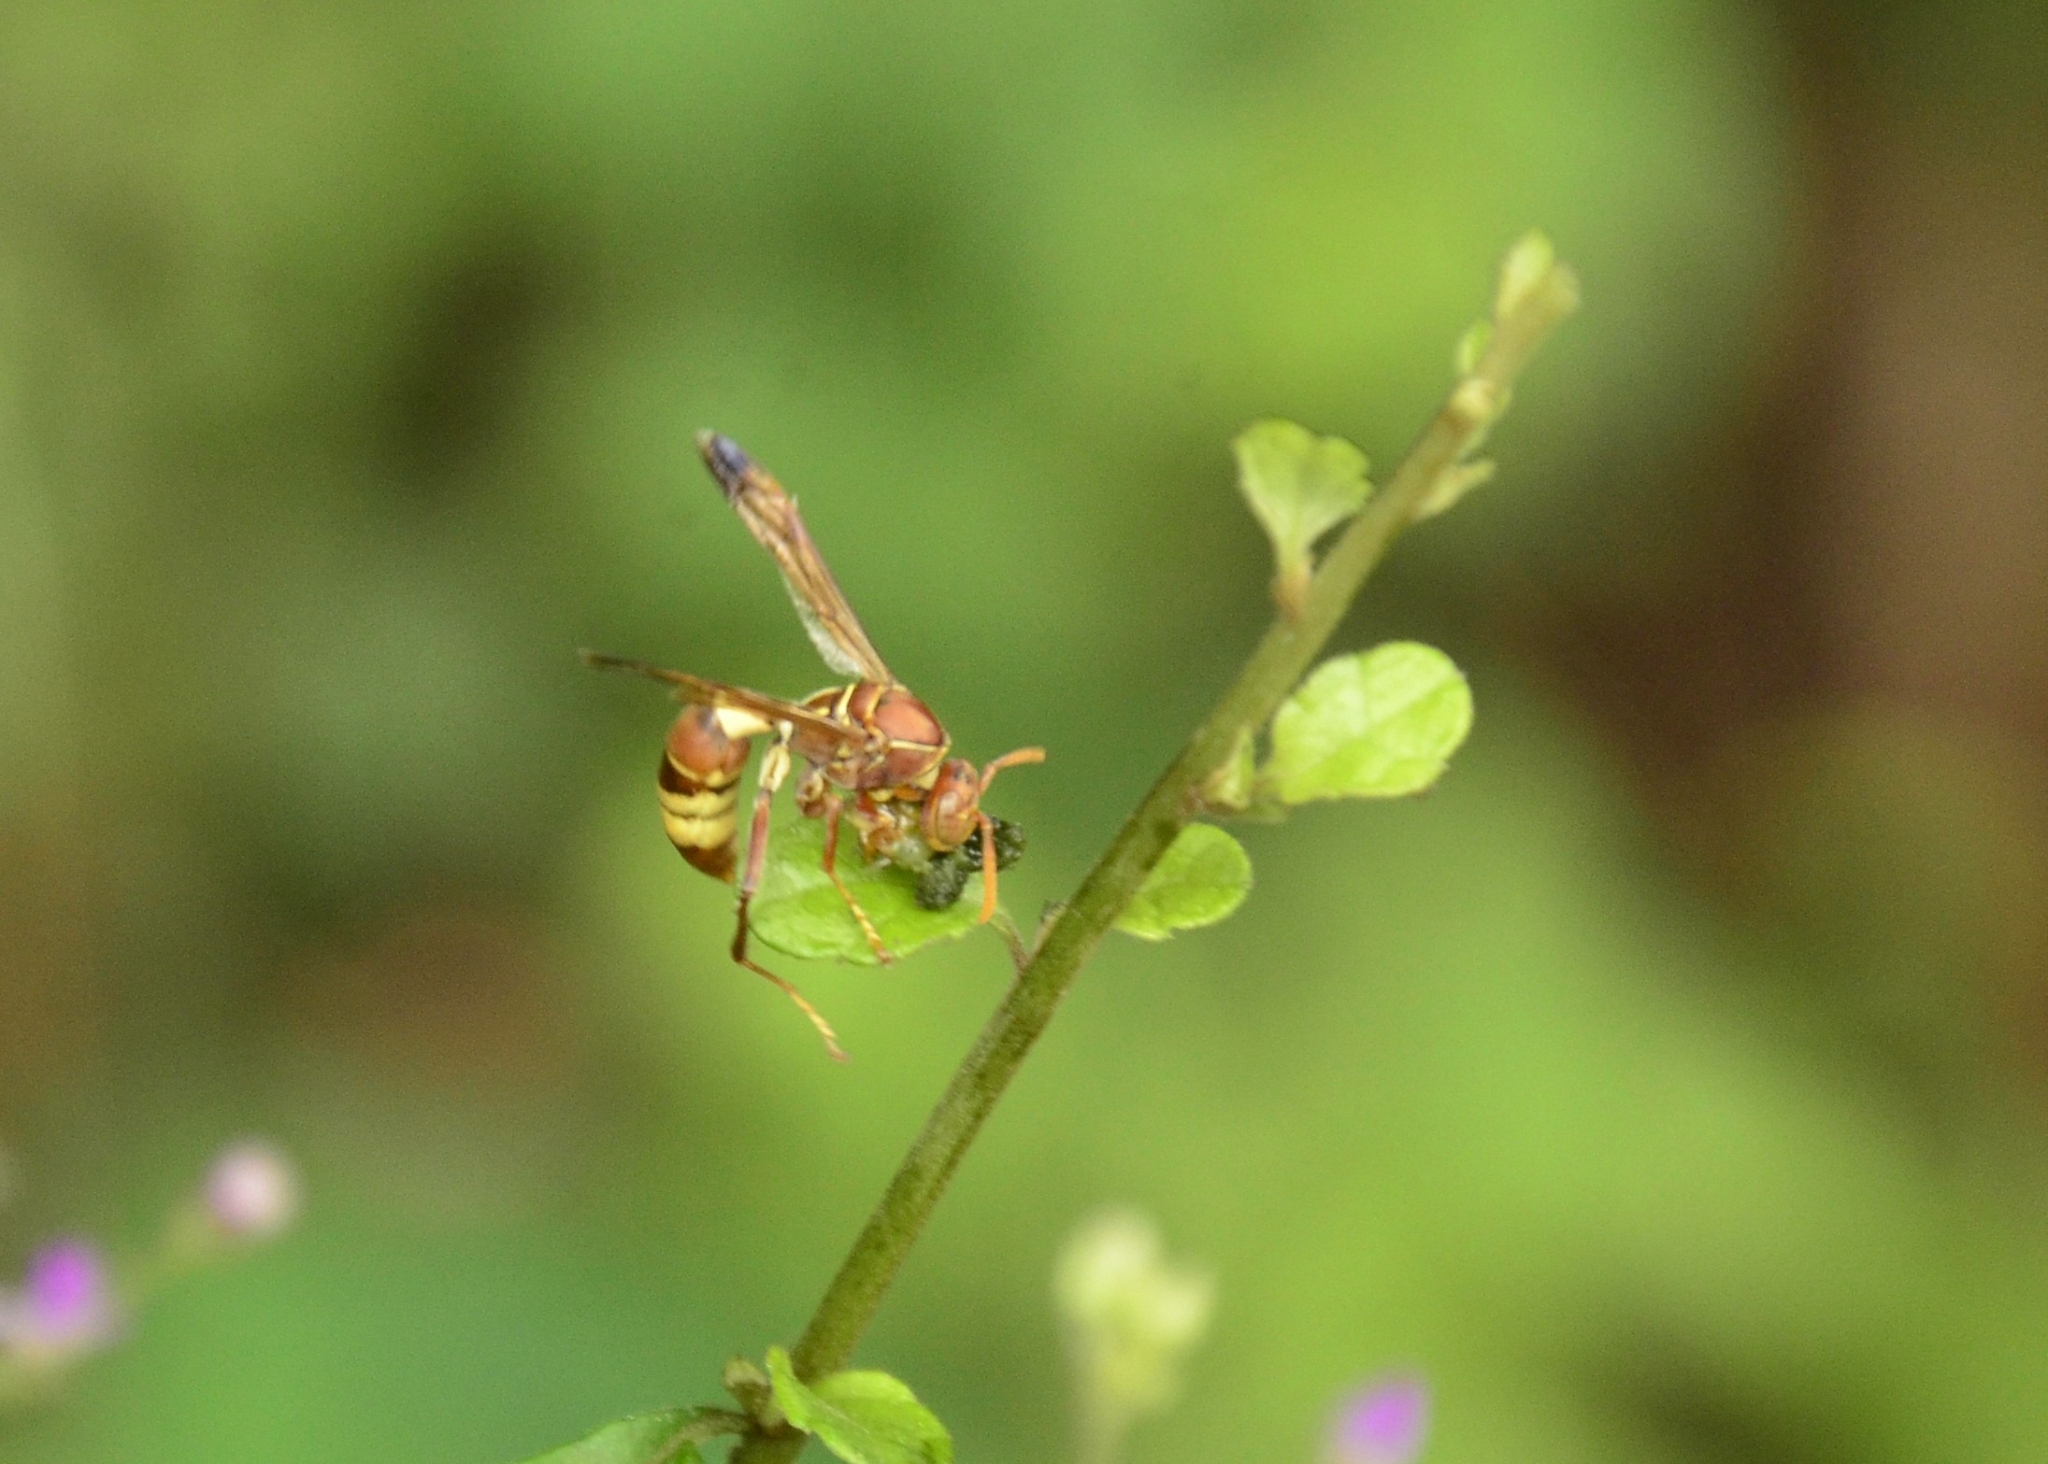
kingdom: Animalia
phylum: Arthropoda
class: Insecta
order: Hymenoptera
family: Eumenidae
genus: Polistes
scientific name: Polistes stigma
